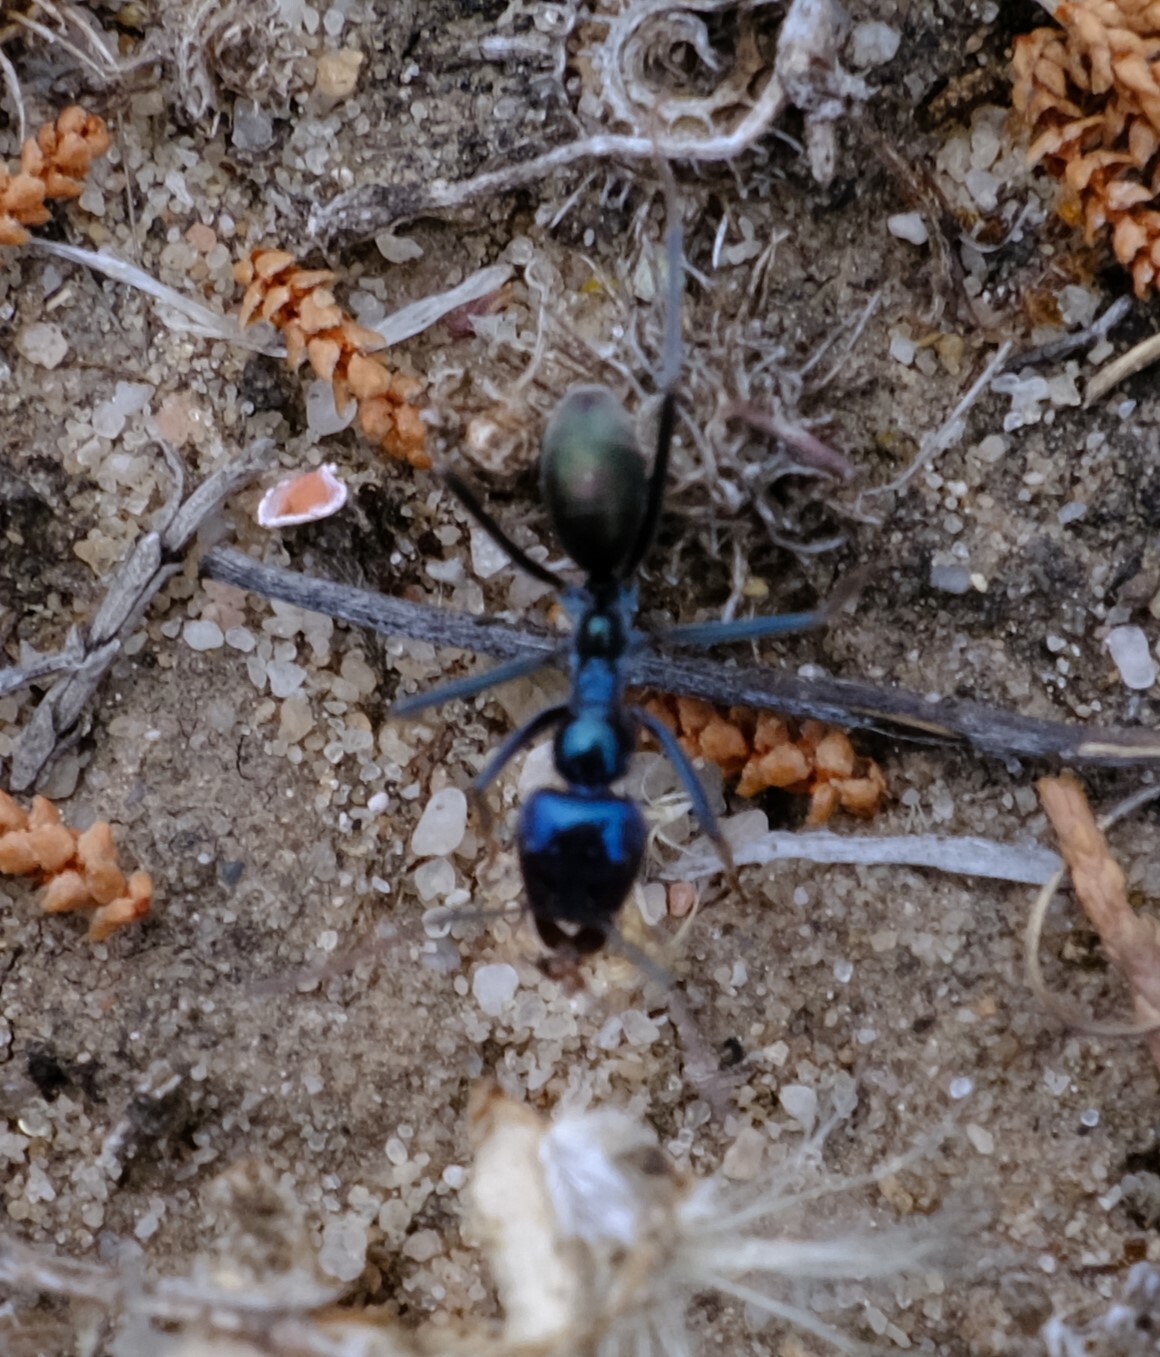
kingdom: Animalia
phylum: Arthropoda
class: Insecta
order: Hymenoptera
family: Formicidae
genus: Iridomyrmex
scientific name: Iridomyrmex lividus
